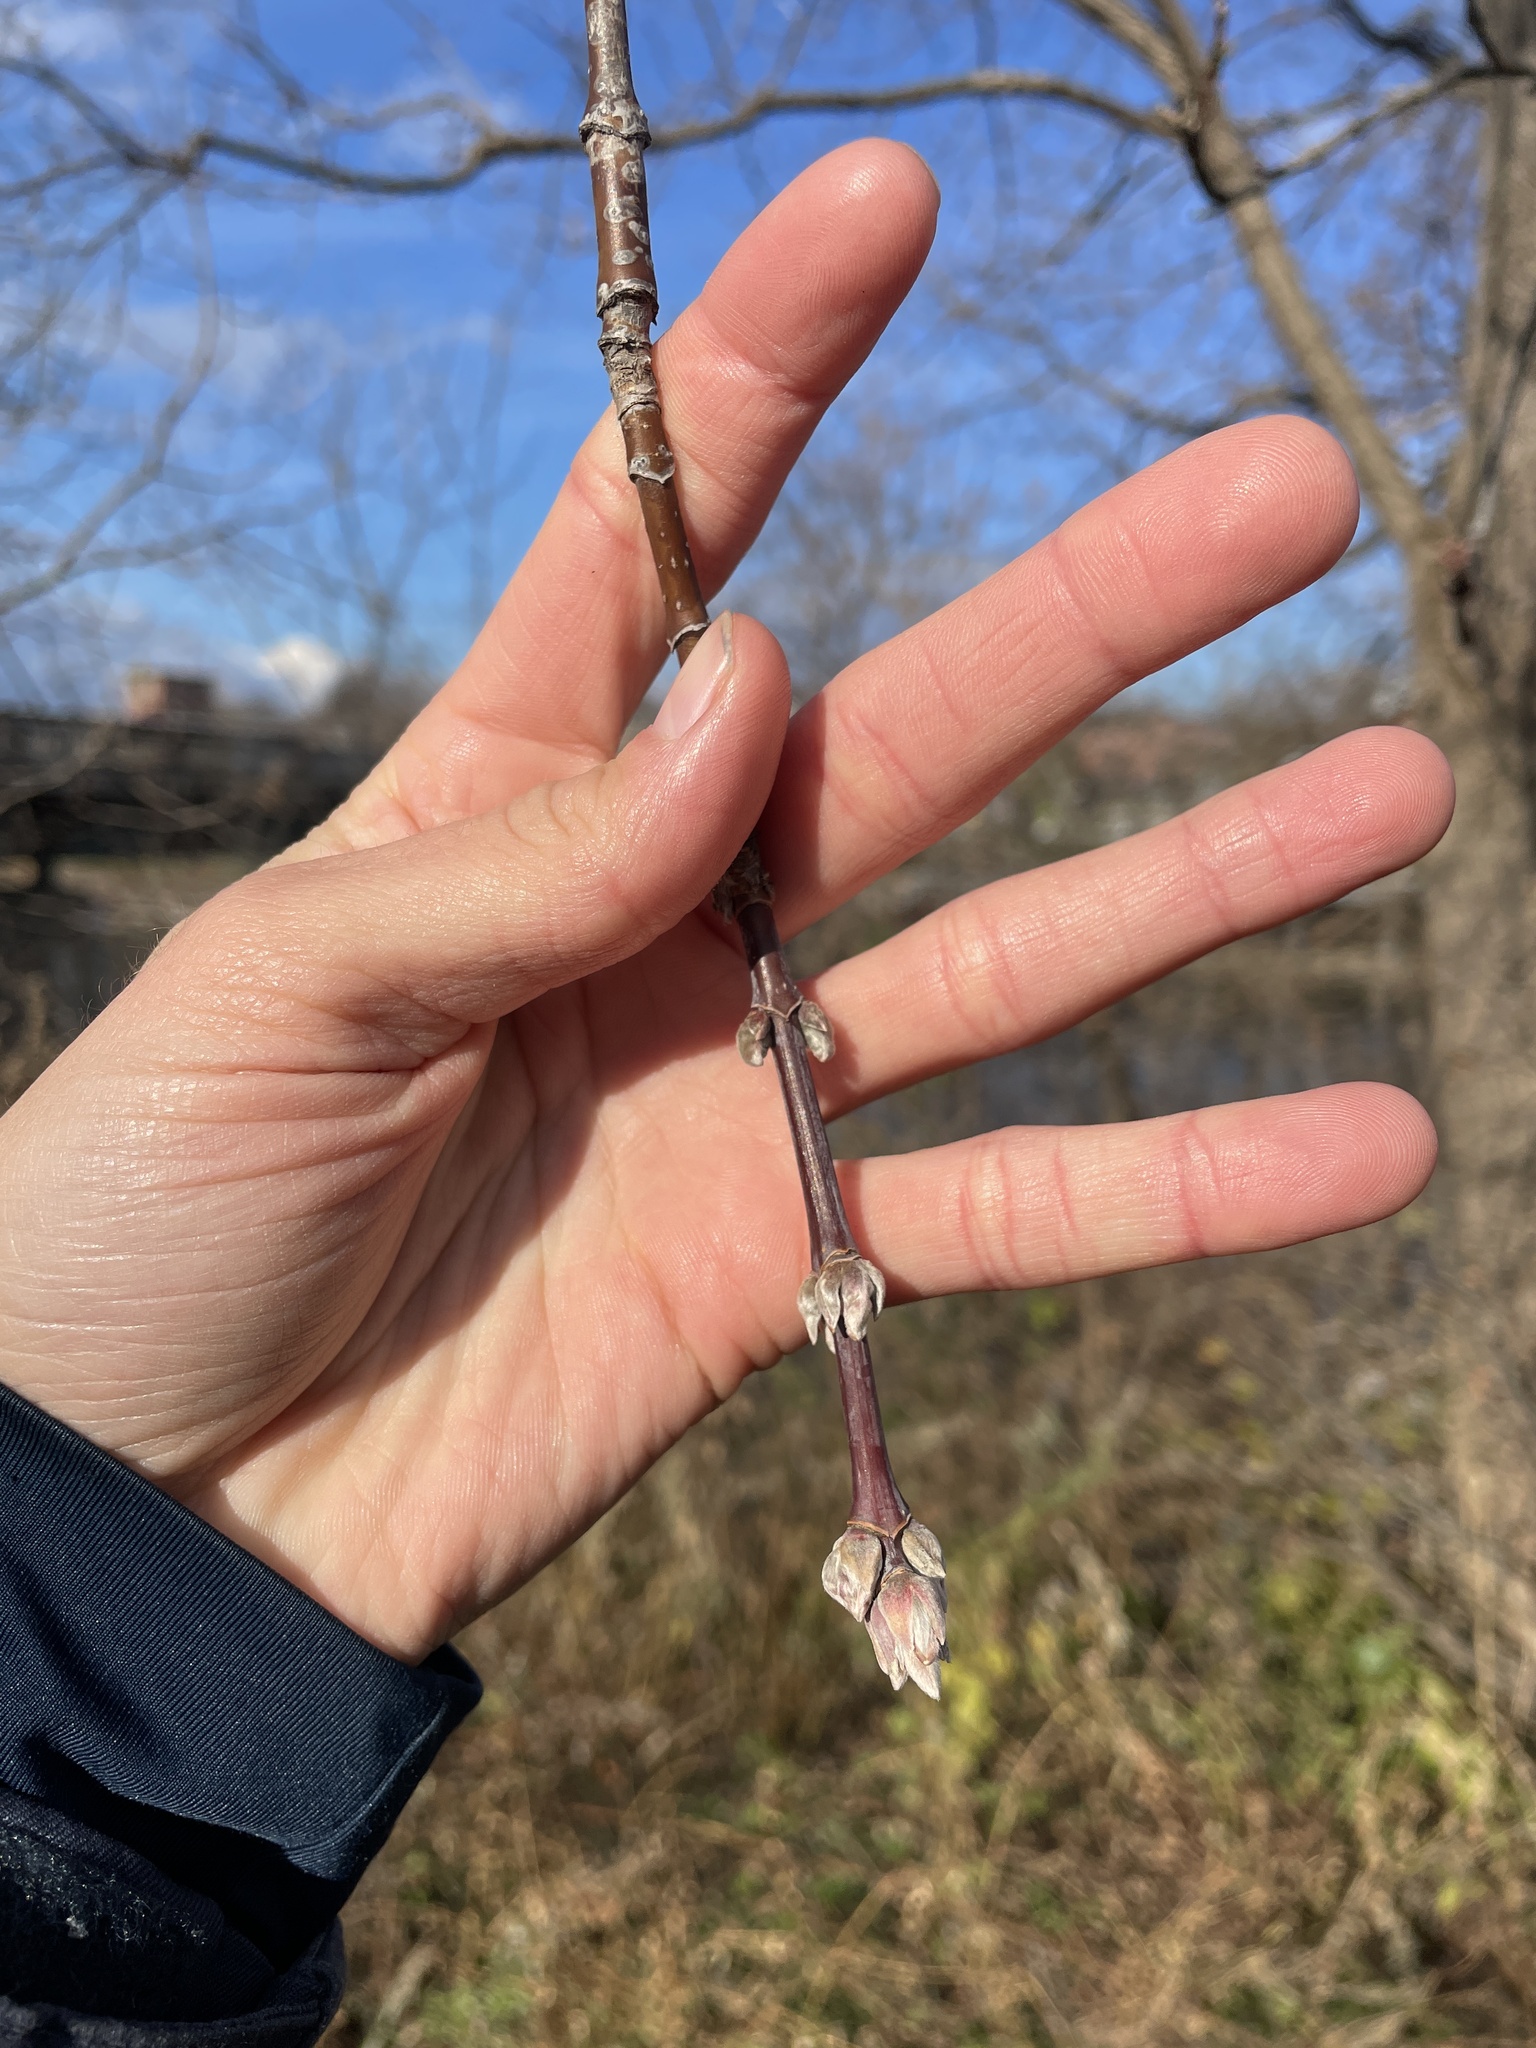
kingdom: Plantae
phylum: Tracheophyta
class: Magnoliopsida
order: Sapindales
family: Sapindaceae
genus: Acer
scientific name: Acer negundo
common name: Ashleaf maple
